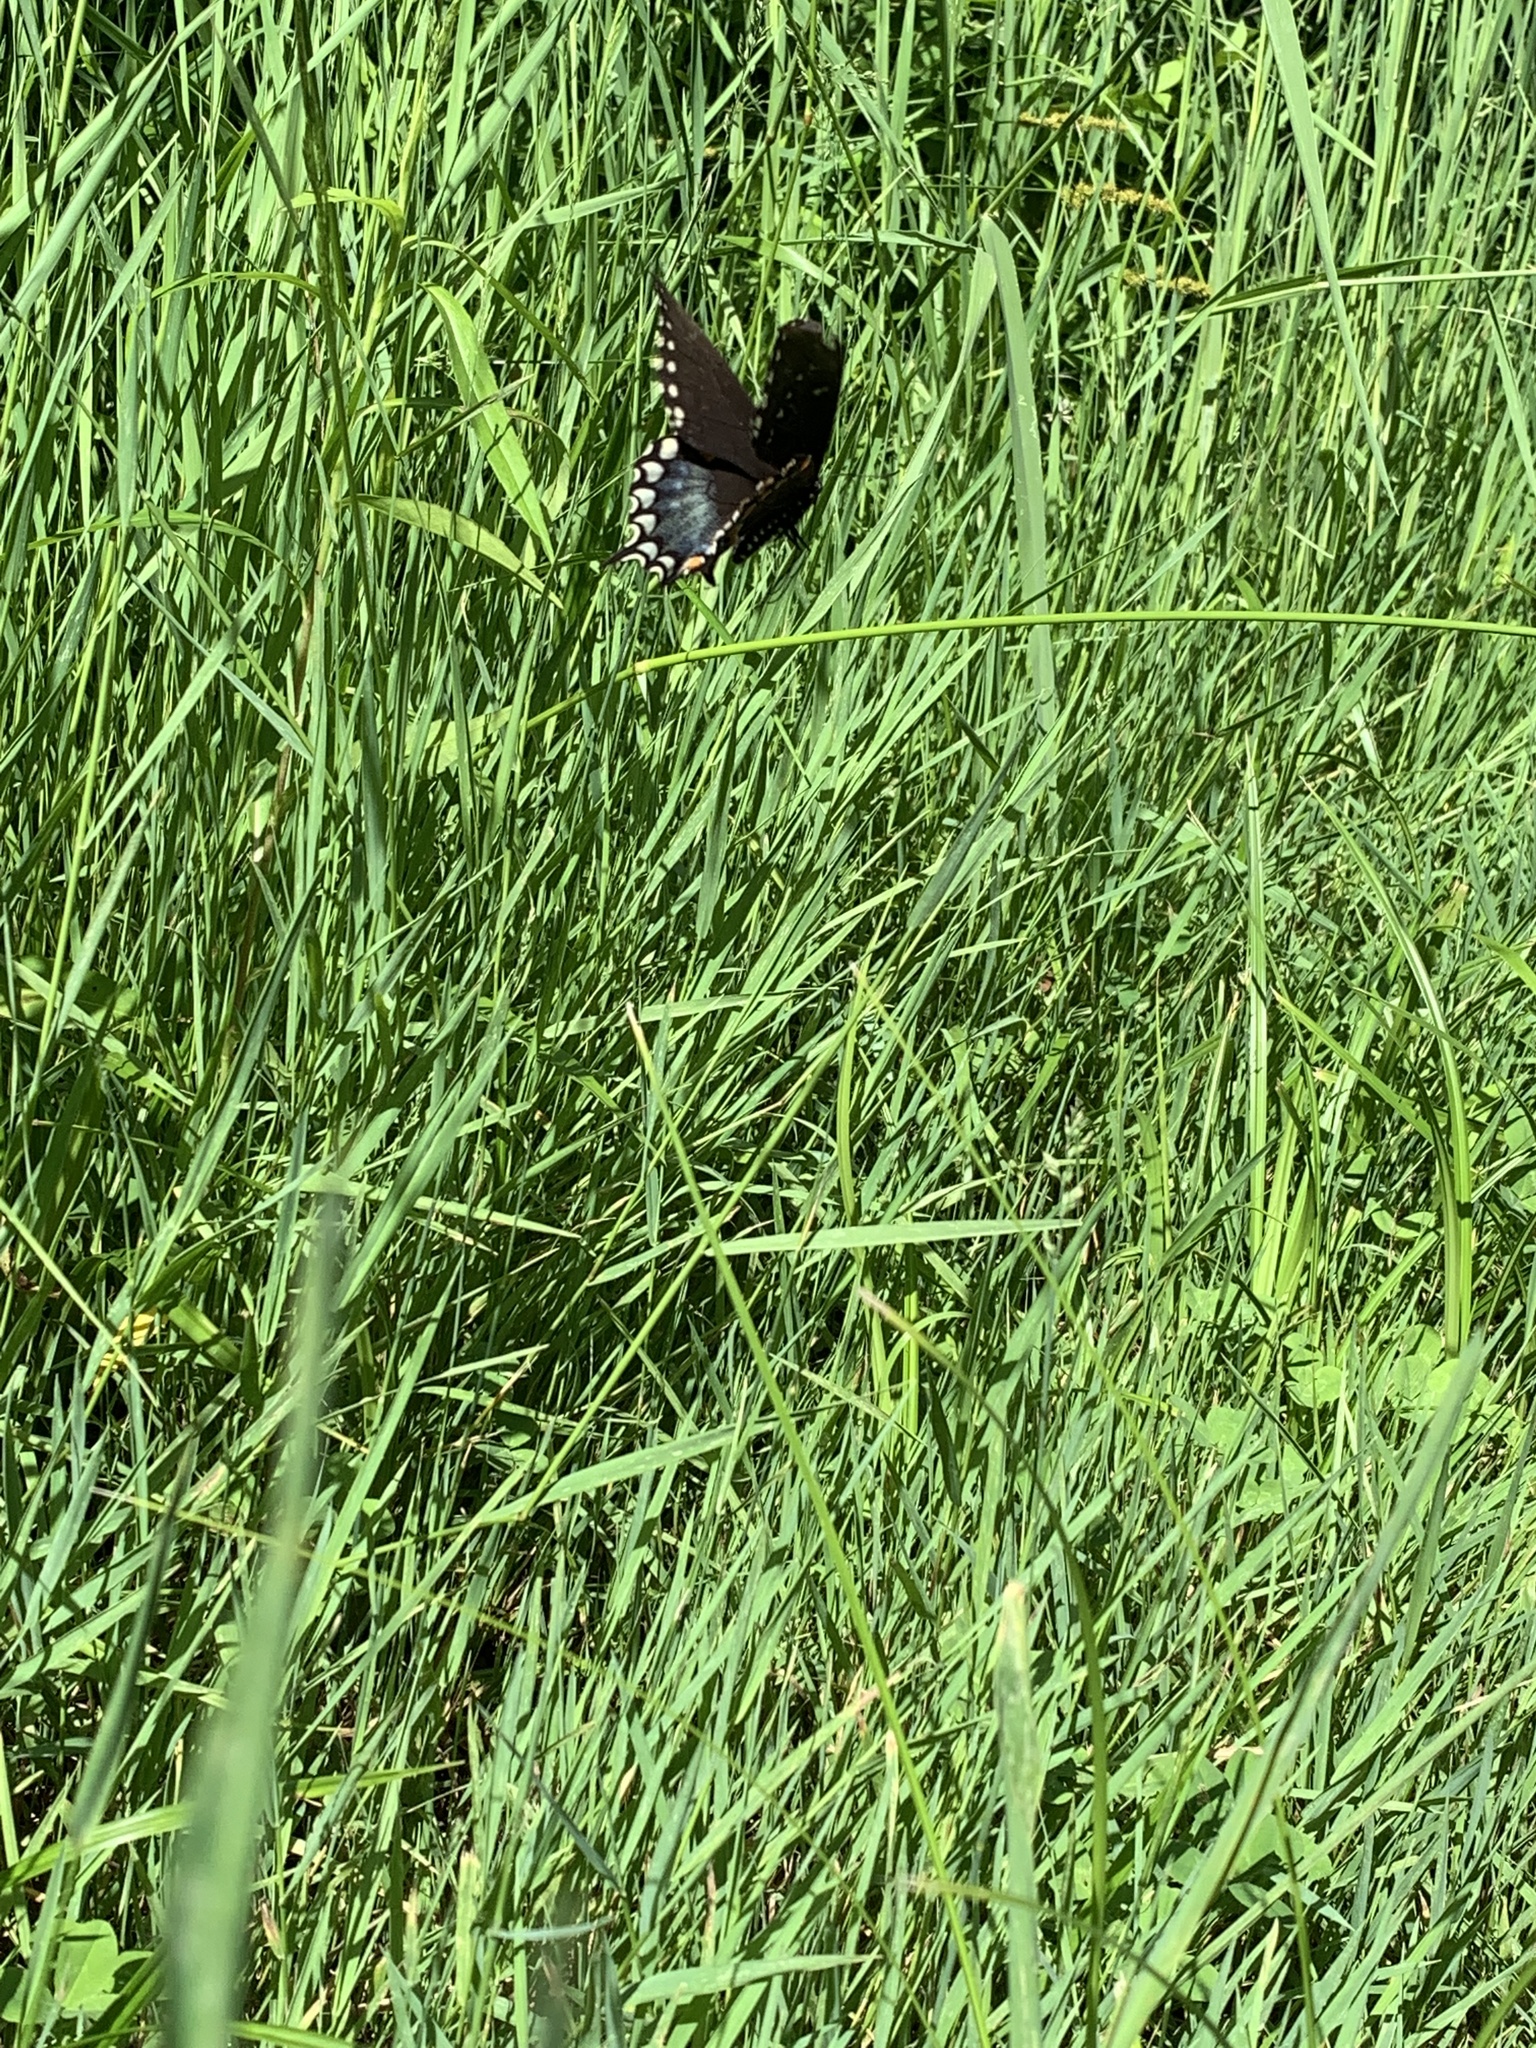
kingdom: Animalia
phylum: Arthropoda
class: Insecta
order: Lepidoptera
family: Papilionidae
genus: Papilio
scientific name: Papilio troilus
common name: Spicebush swallowtail
